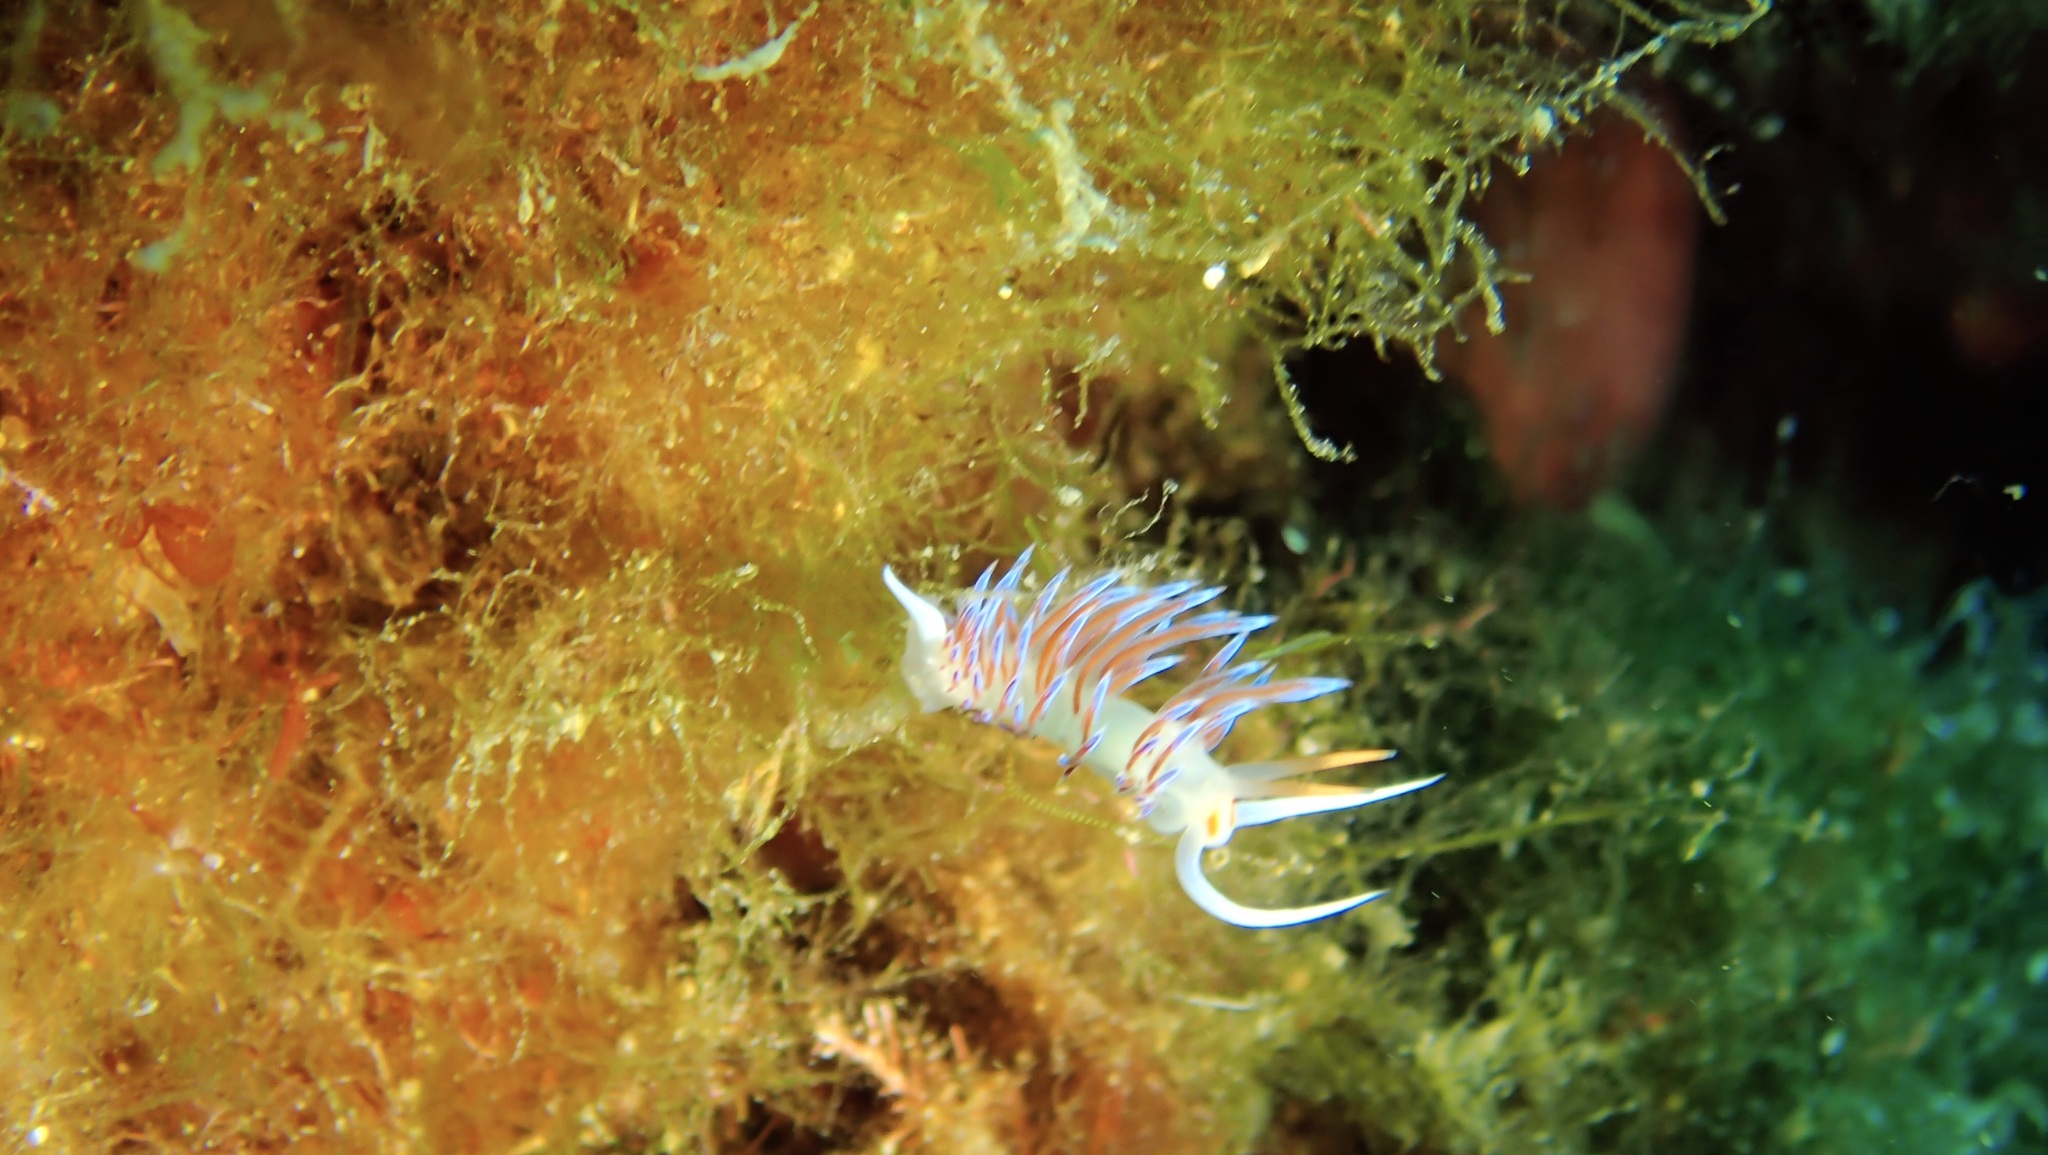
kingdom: Animalia
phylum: Mollusca
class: Gastropoda
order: Nudibranchia
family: Facelinidae
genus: Cratena
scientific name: Cratena peregrina
